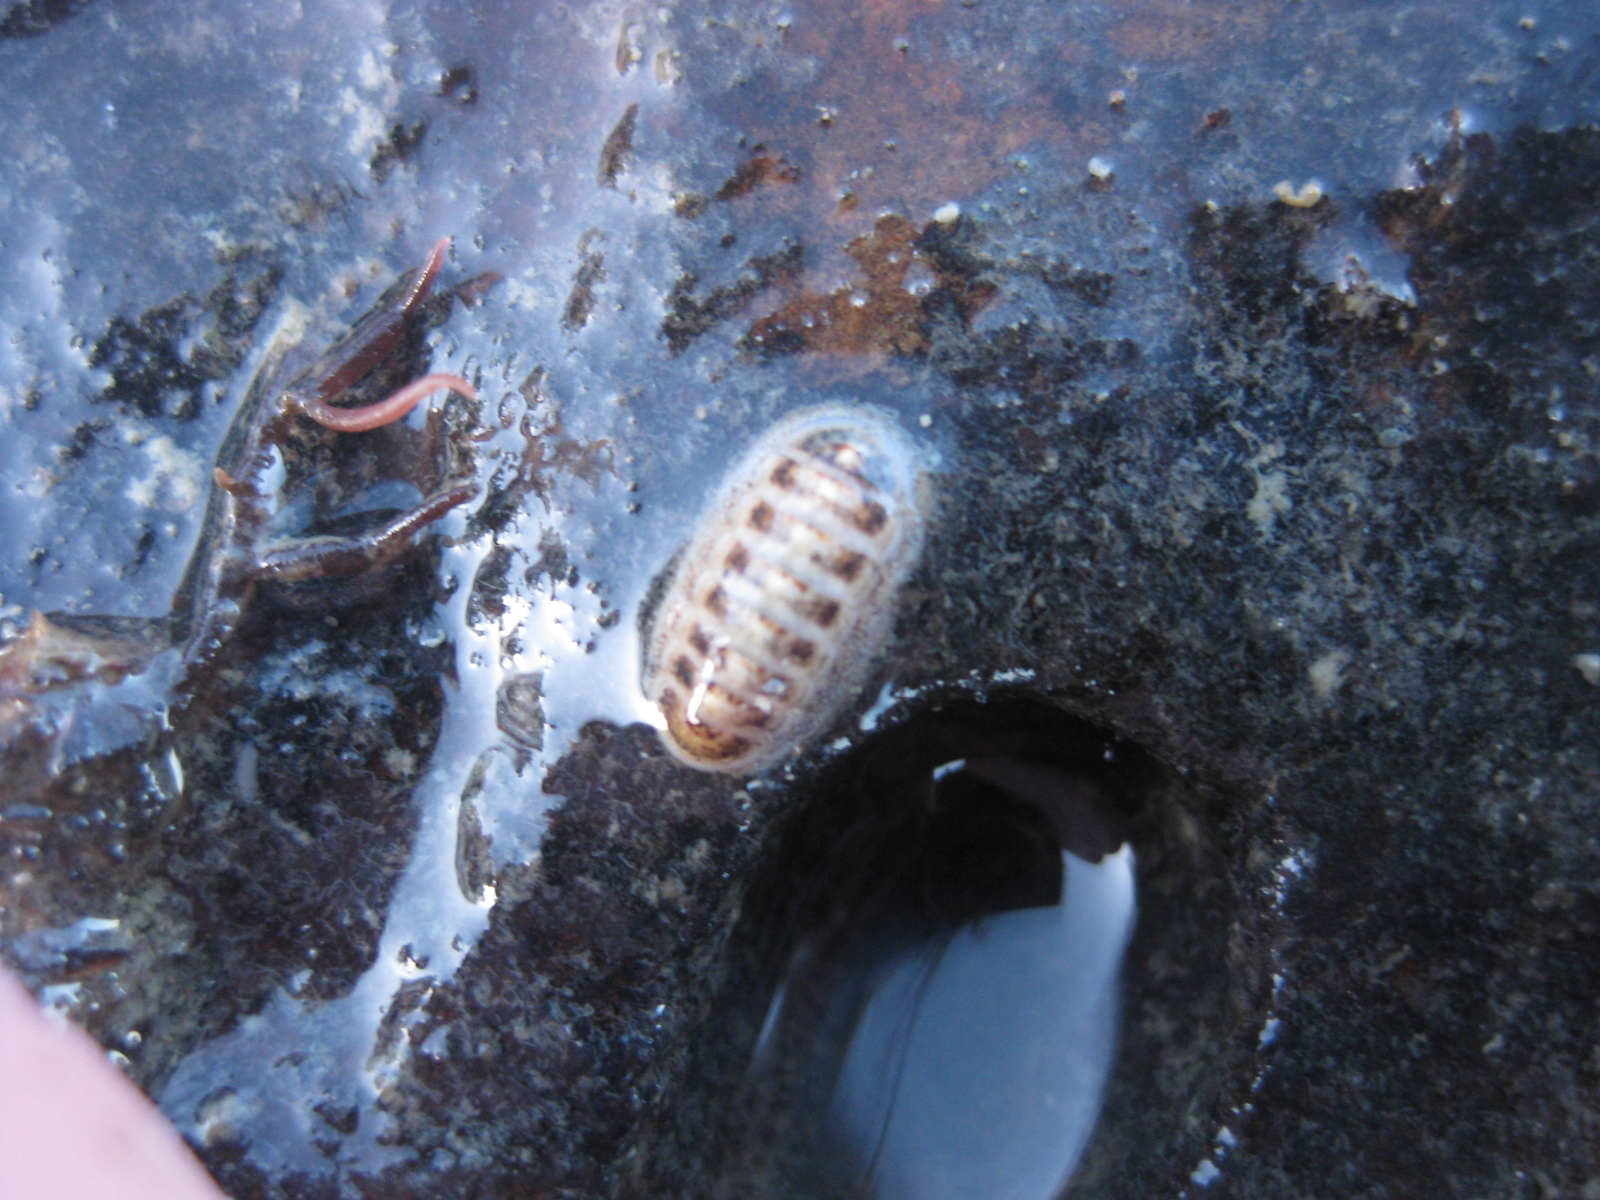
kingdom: Animalia
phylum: Mollusca
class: Polyplacophora
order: Lepidopleurida
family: Leptochitonidae
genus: Leptochiton
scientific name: Leptochiton inquinatus
